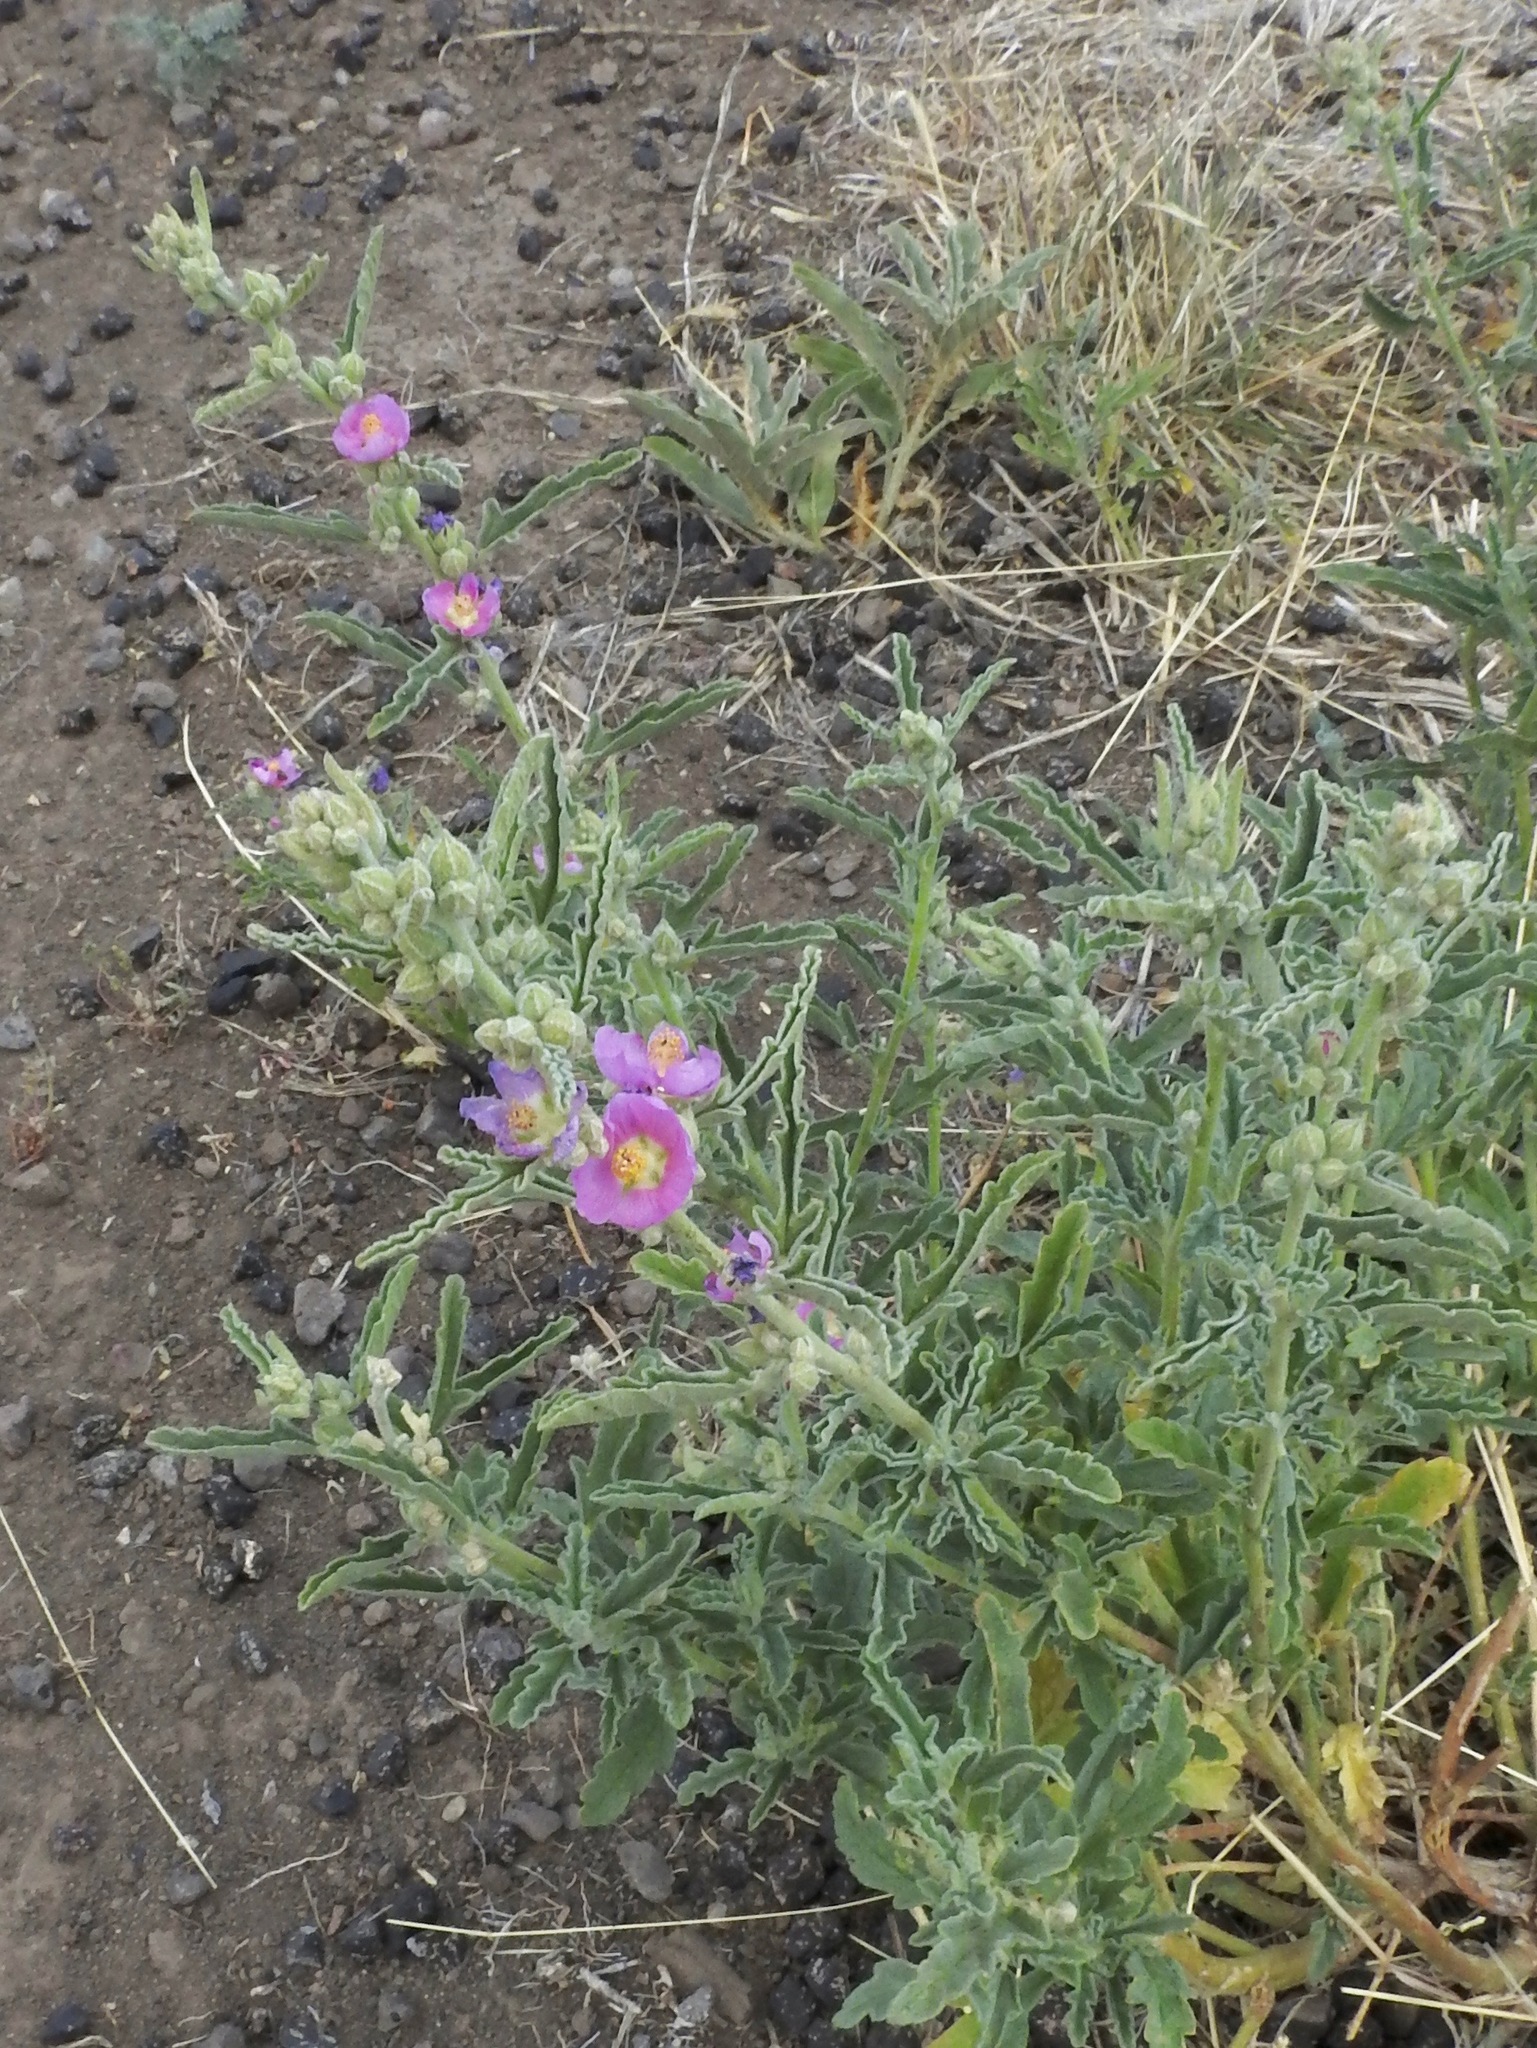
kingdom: Plantae
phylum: Tracheophyta
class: Magnoliopsida
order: Malvales
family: Malvaceae
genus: Sphaeralcea
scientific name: Sphaeralcea angustifolia
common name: Copper globe-mallow
